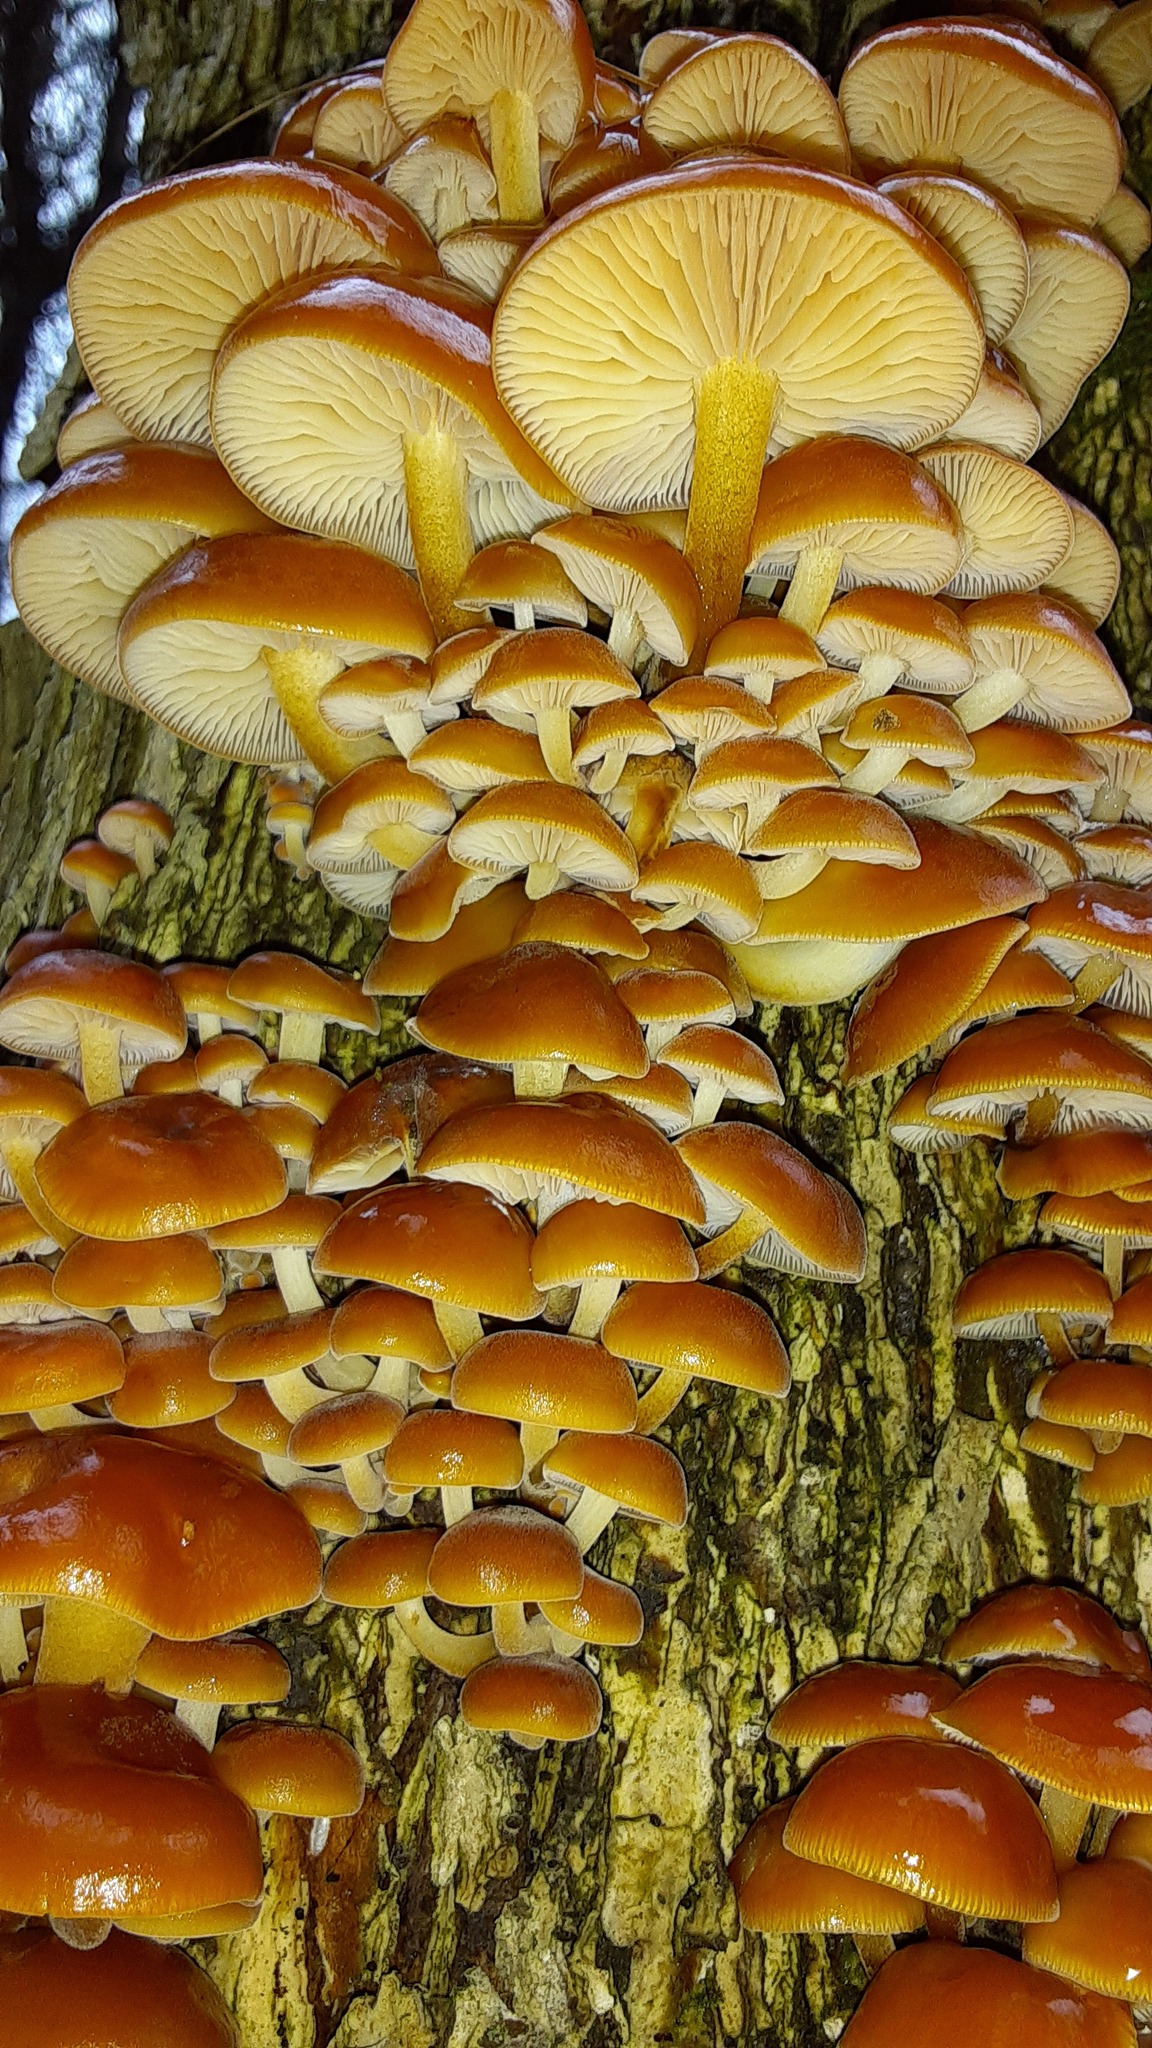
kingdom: Fungi
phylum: Basidiomycota
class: Agaricomycetes
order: Agaricales
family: Physalacriaceae
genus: Flammulina
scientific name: Flammulina velutipes
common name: Velvet shank
